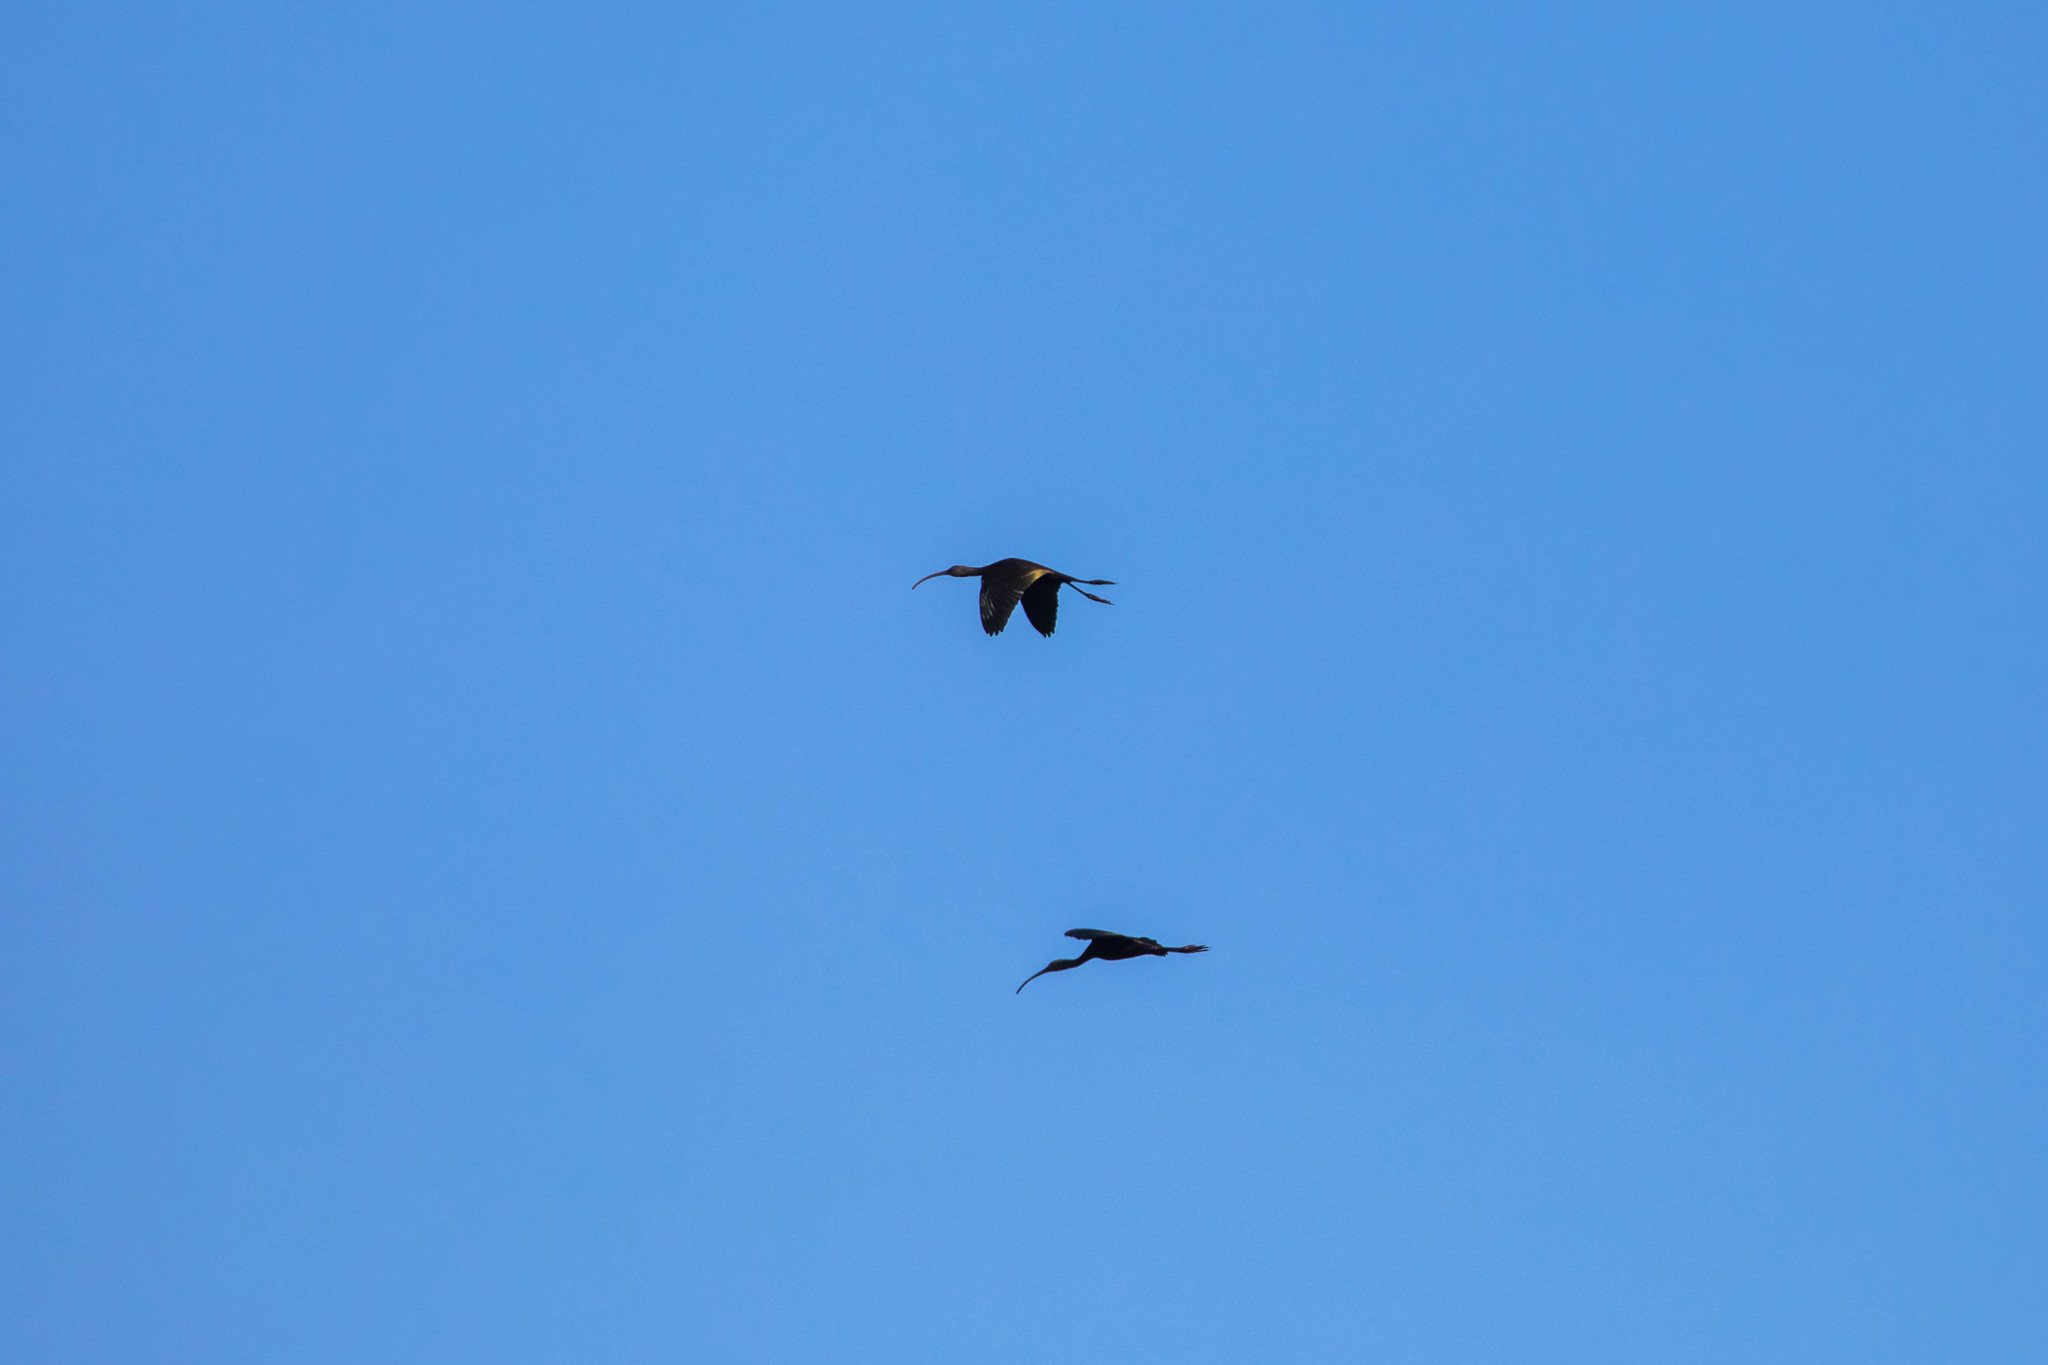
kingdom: Animalia
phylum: Chordata
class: Aves
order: Pelecaniformes
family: Threskiornithidae
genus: Plegadis
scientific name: Plegadis chihi
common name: White-faced ibis
